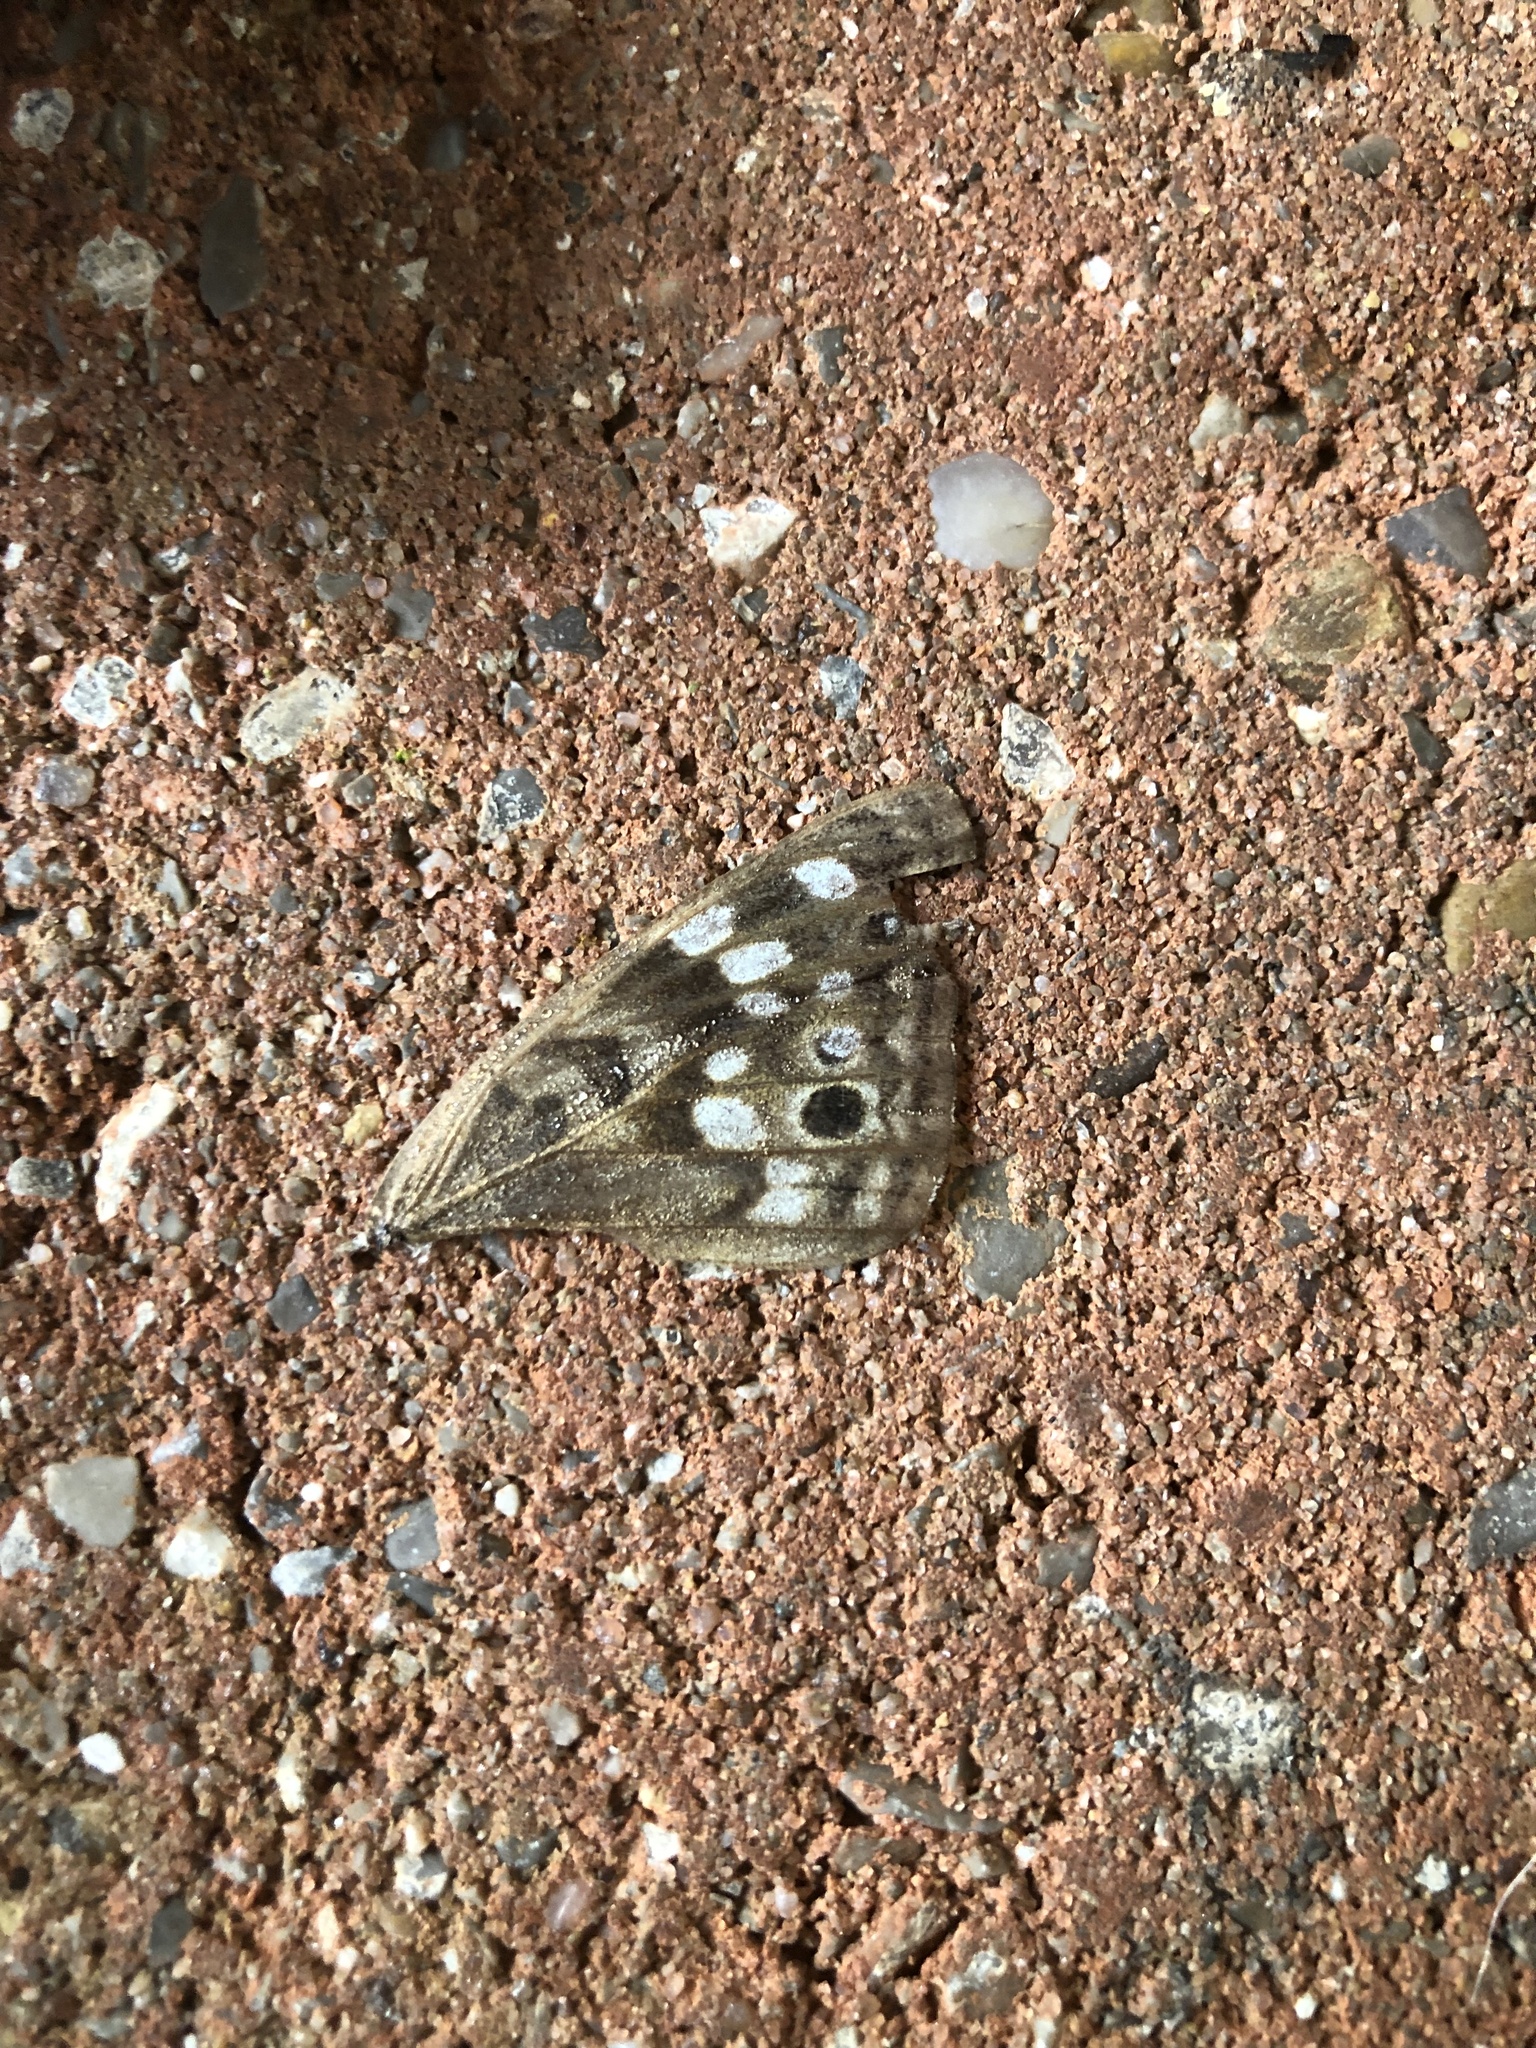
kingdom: Animalia
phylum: Arthropoda
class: Insecta
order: Lepidoptera
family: Nymphalidae
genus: Asterocampa
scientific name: Asterocampa celtis
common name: Hackberry emperor
